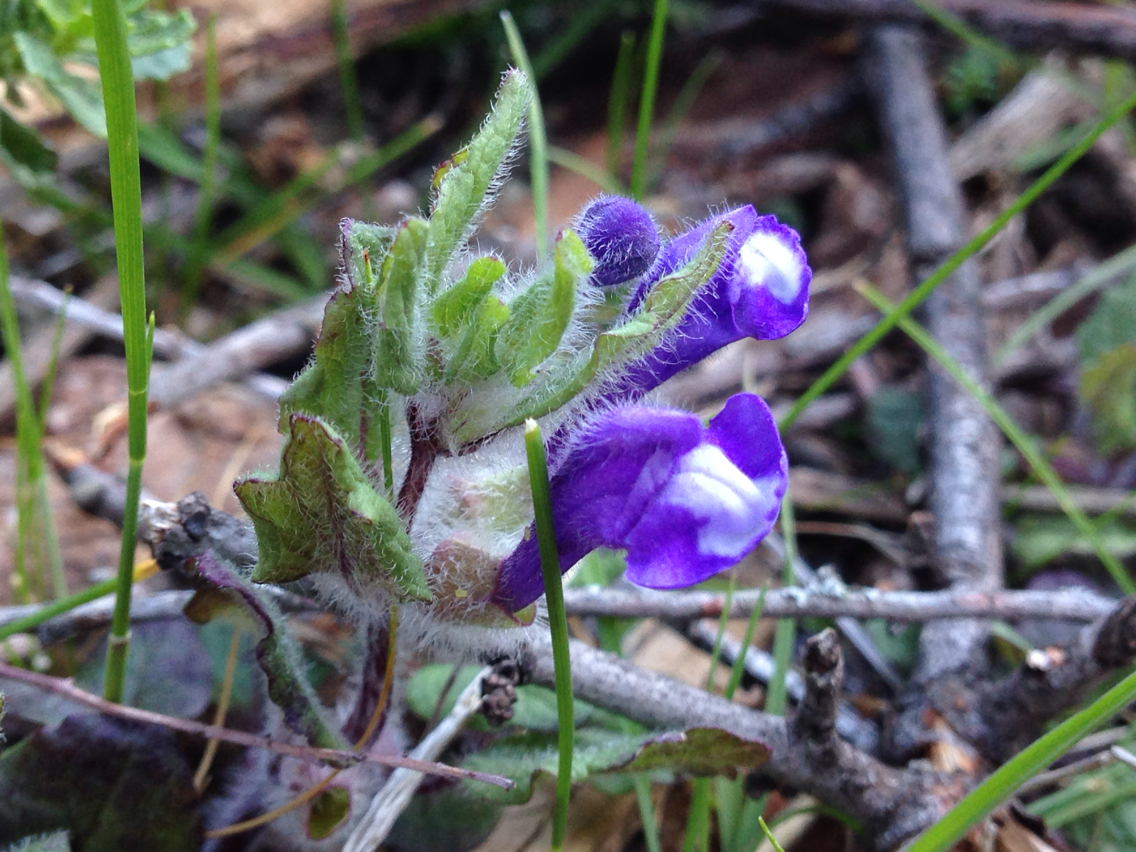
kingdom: Plantae
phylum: Tracheophyta
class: Magnoliopsida
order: Lamiales
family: Lamiaceae
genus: Scutellaria
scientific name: Scutellaria tuberosa
